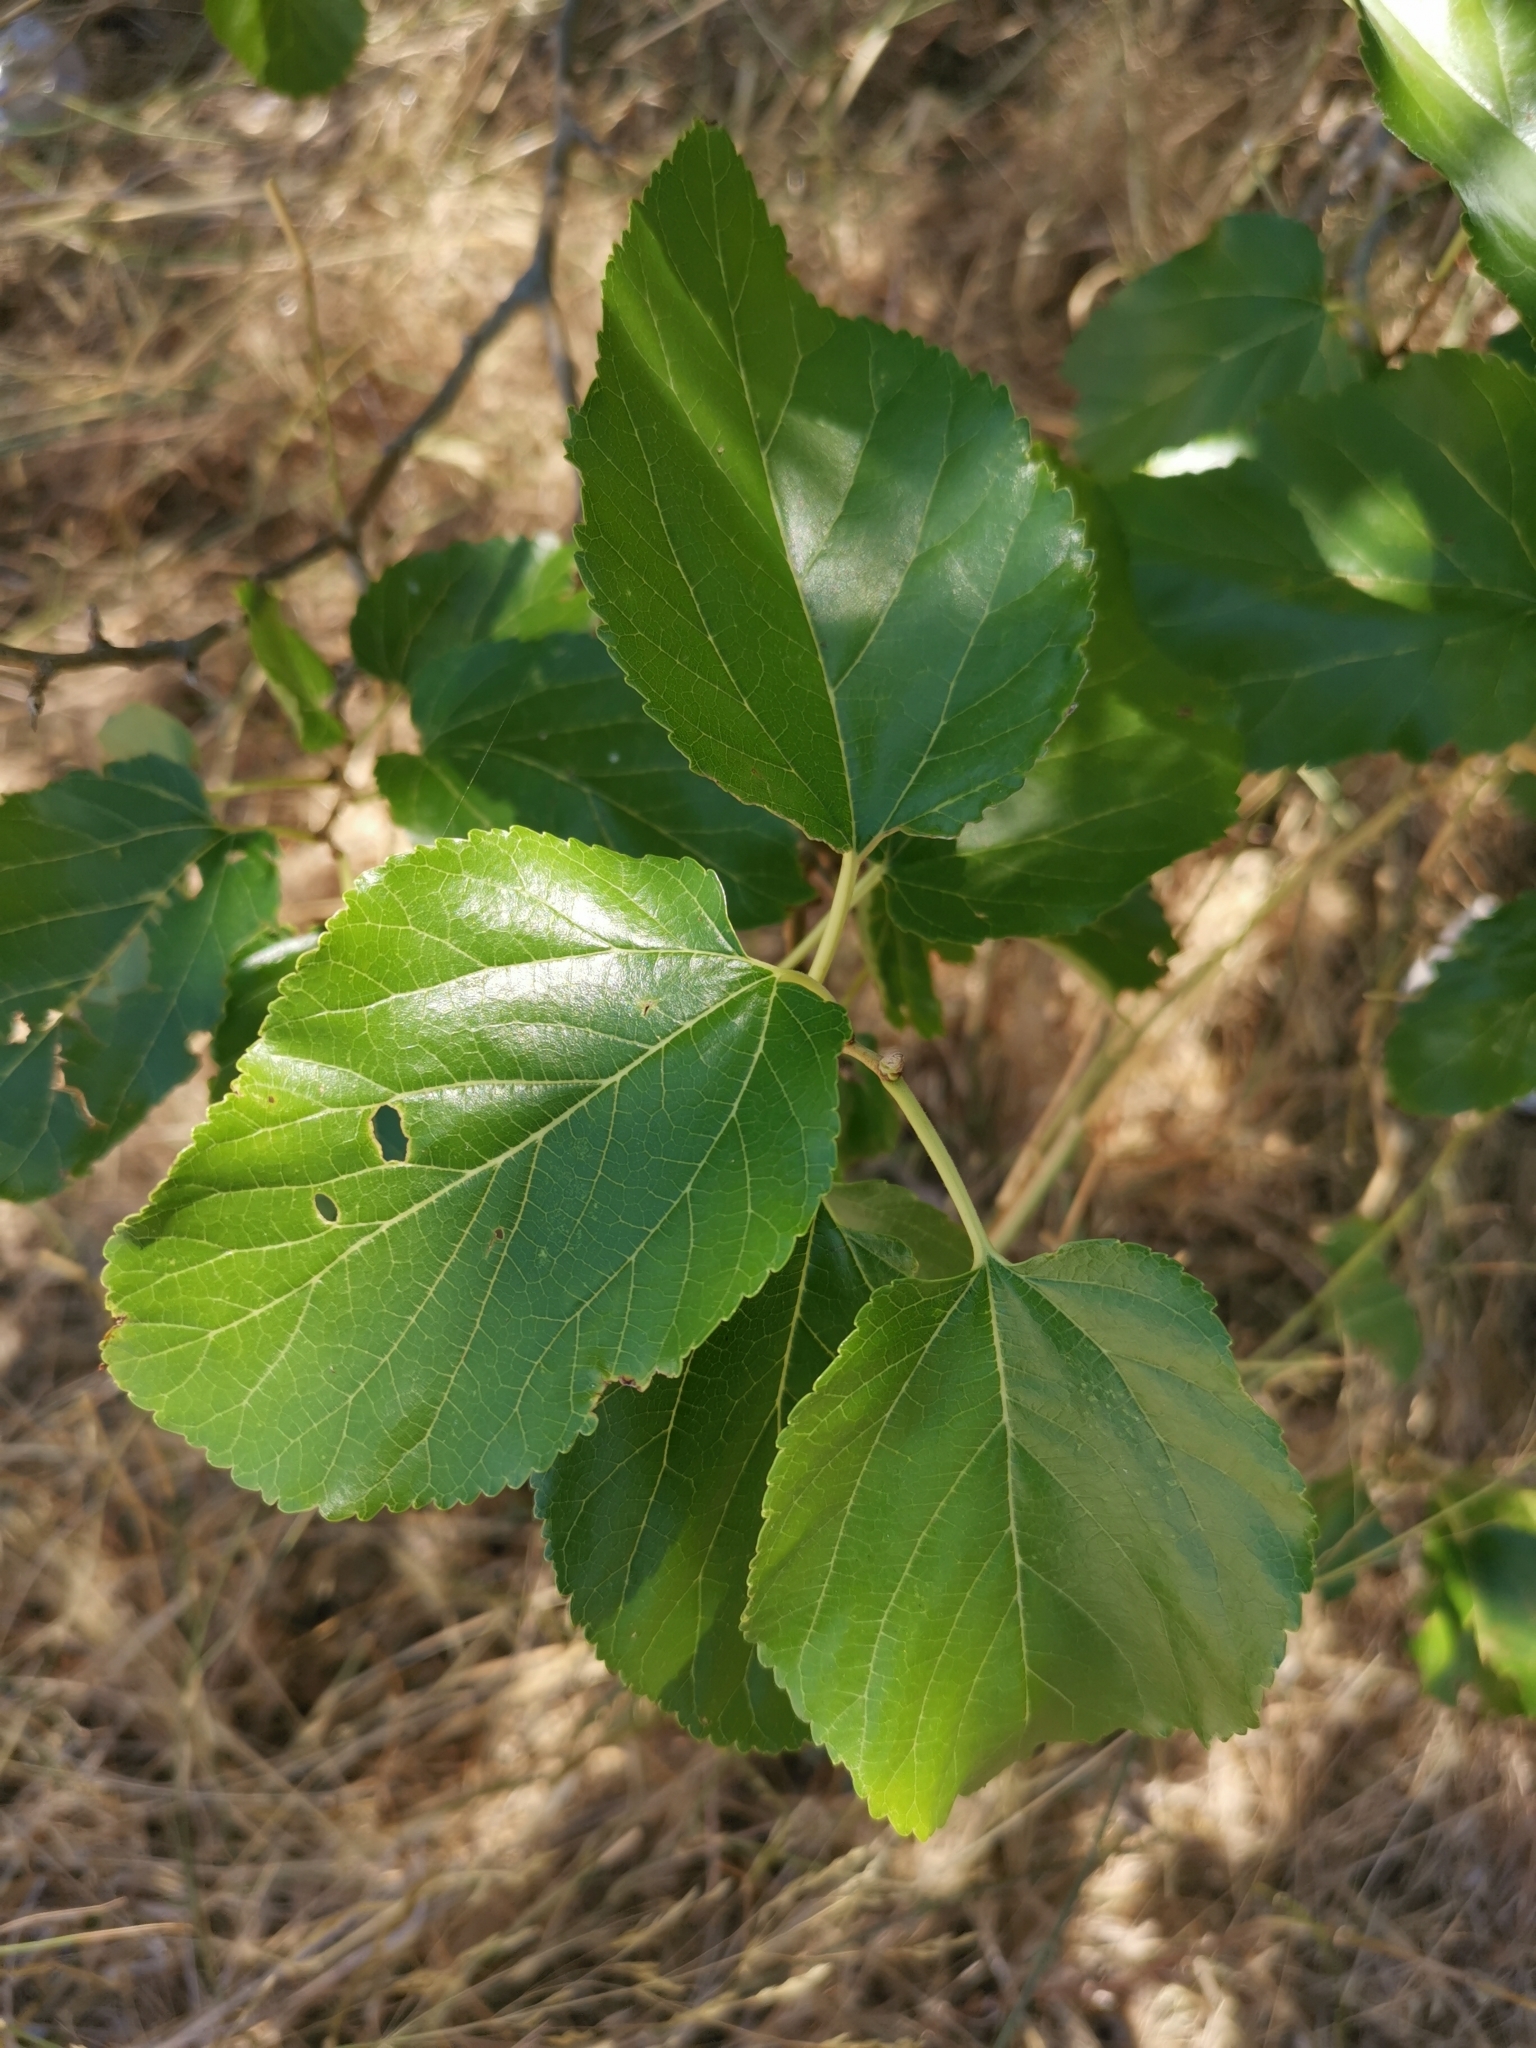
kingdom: Plantae
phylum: Tracheophyta
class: Magnoliopsida
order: Rosales
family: Moraceae
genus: Morus
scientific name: Morus alba
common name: White mulberry
